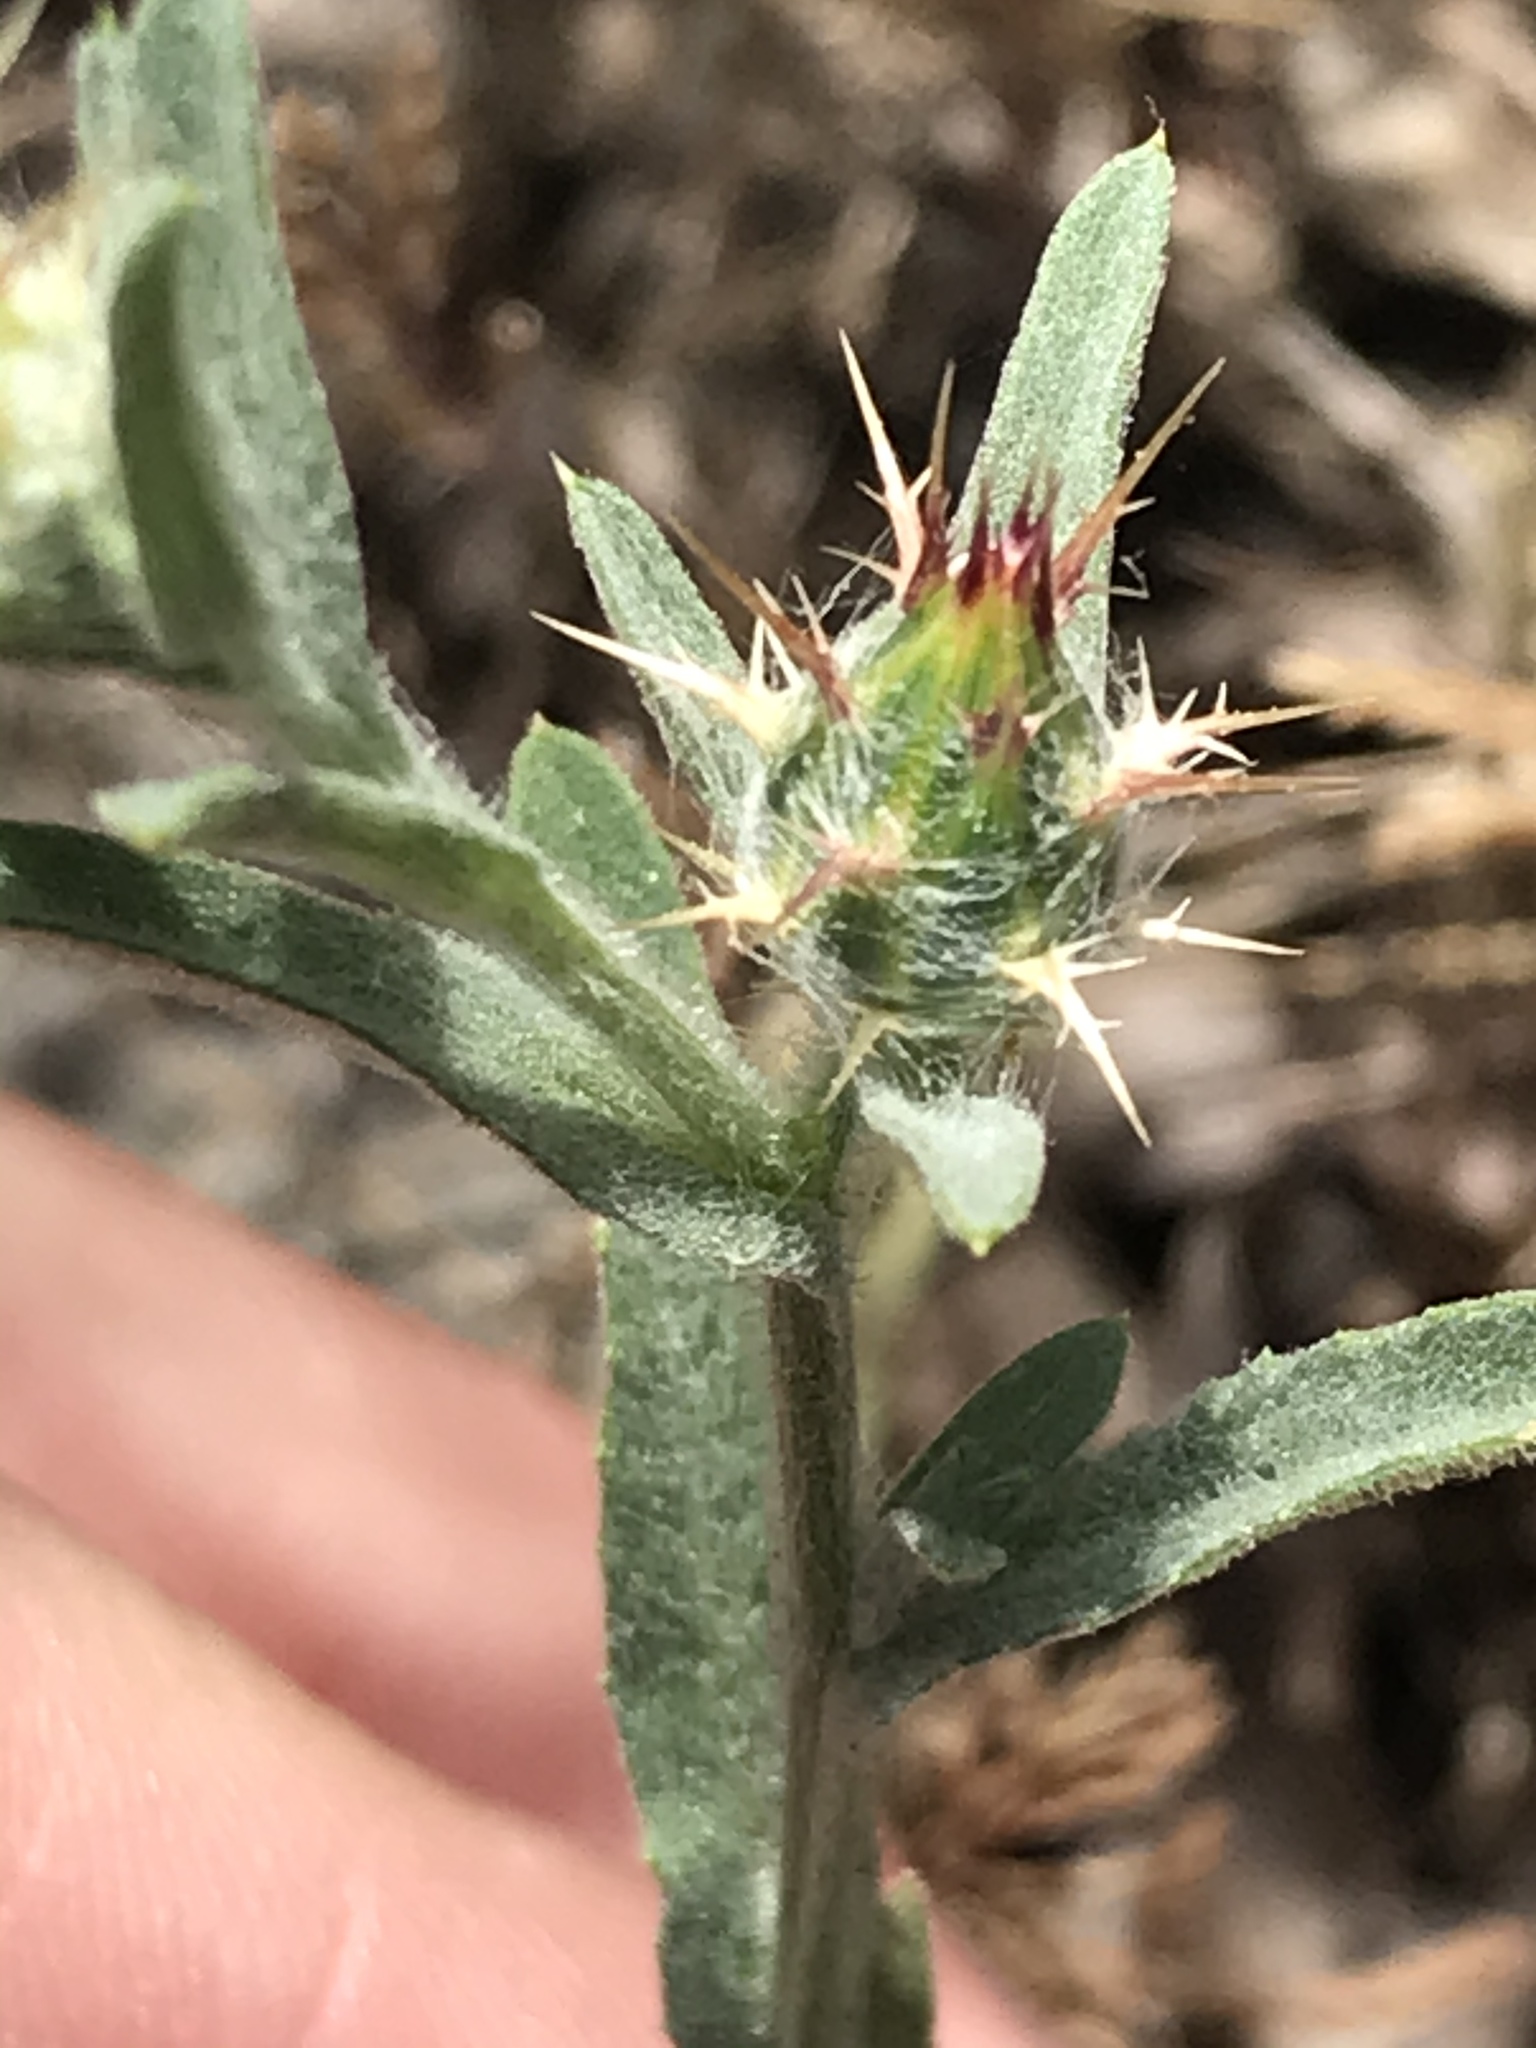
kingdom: Plantae
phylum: Tracheophyta
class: Magnoliopsida
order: Asterales
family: Asteraceae
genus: Centaurea
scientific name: Centaurea melitensis
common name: Maltese star-thistle
